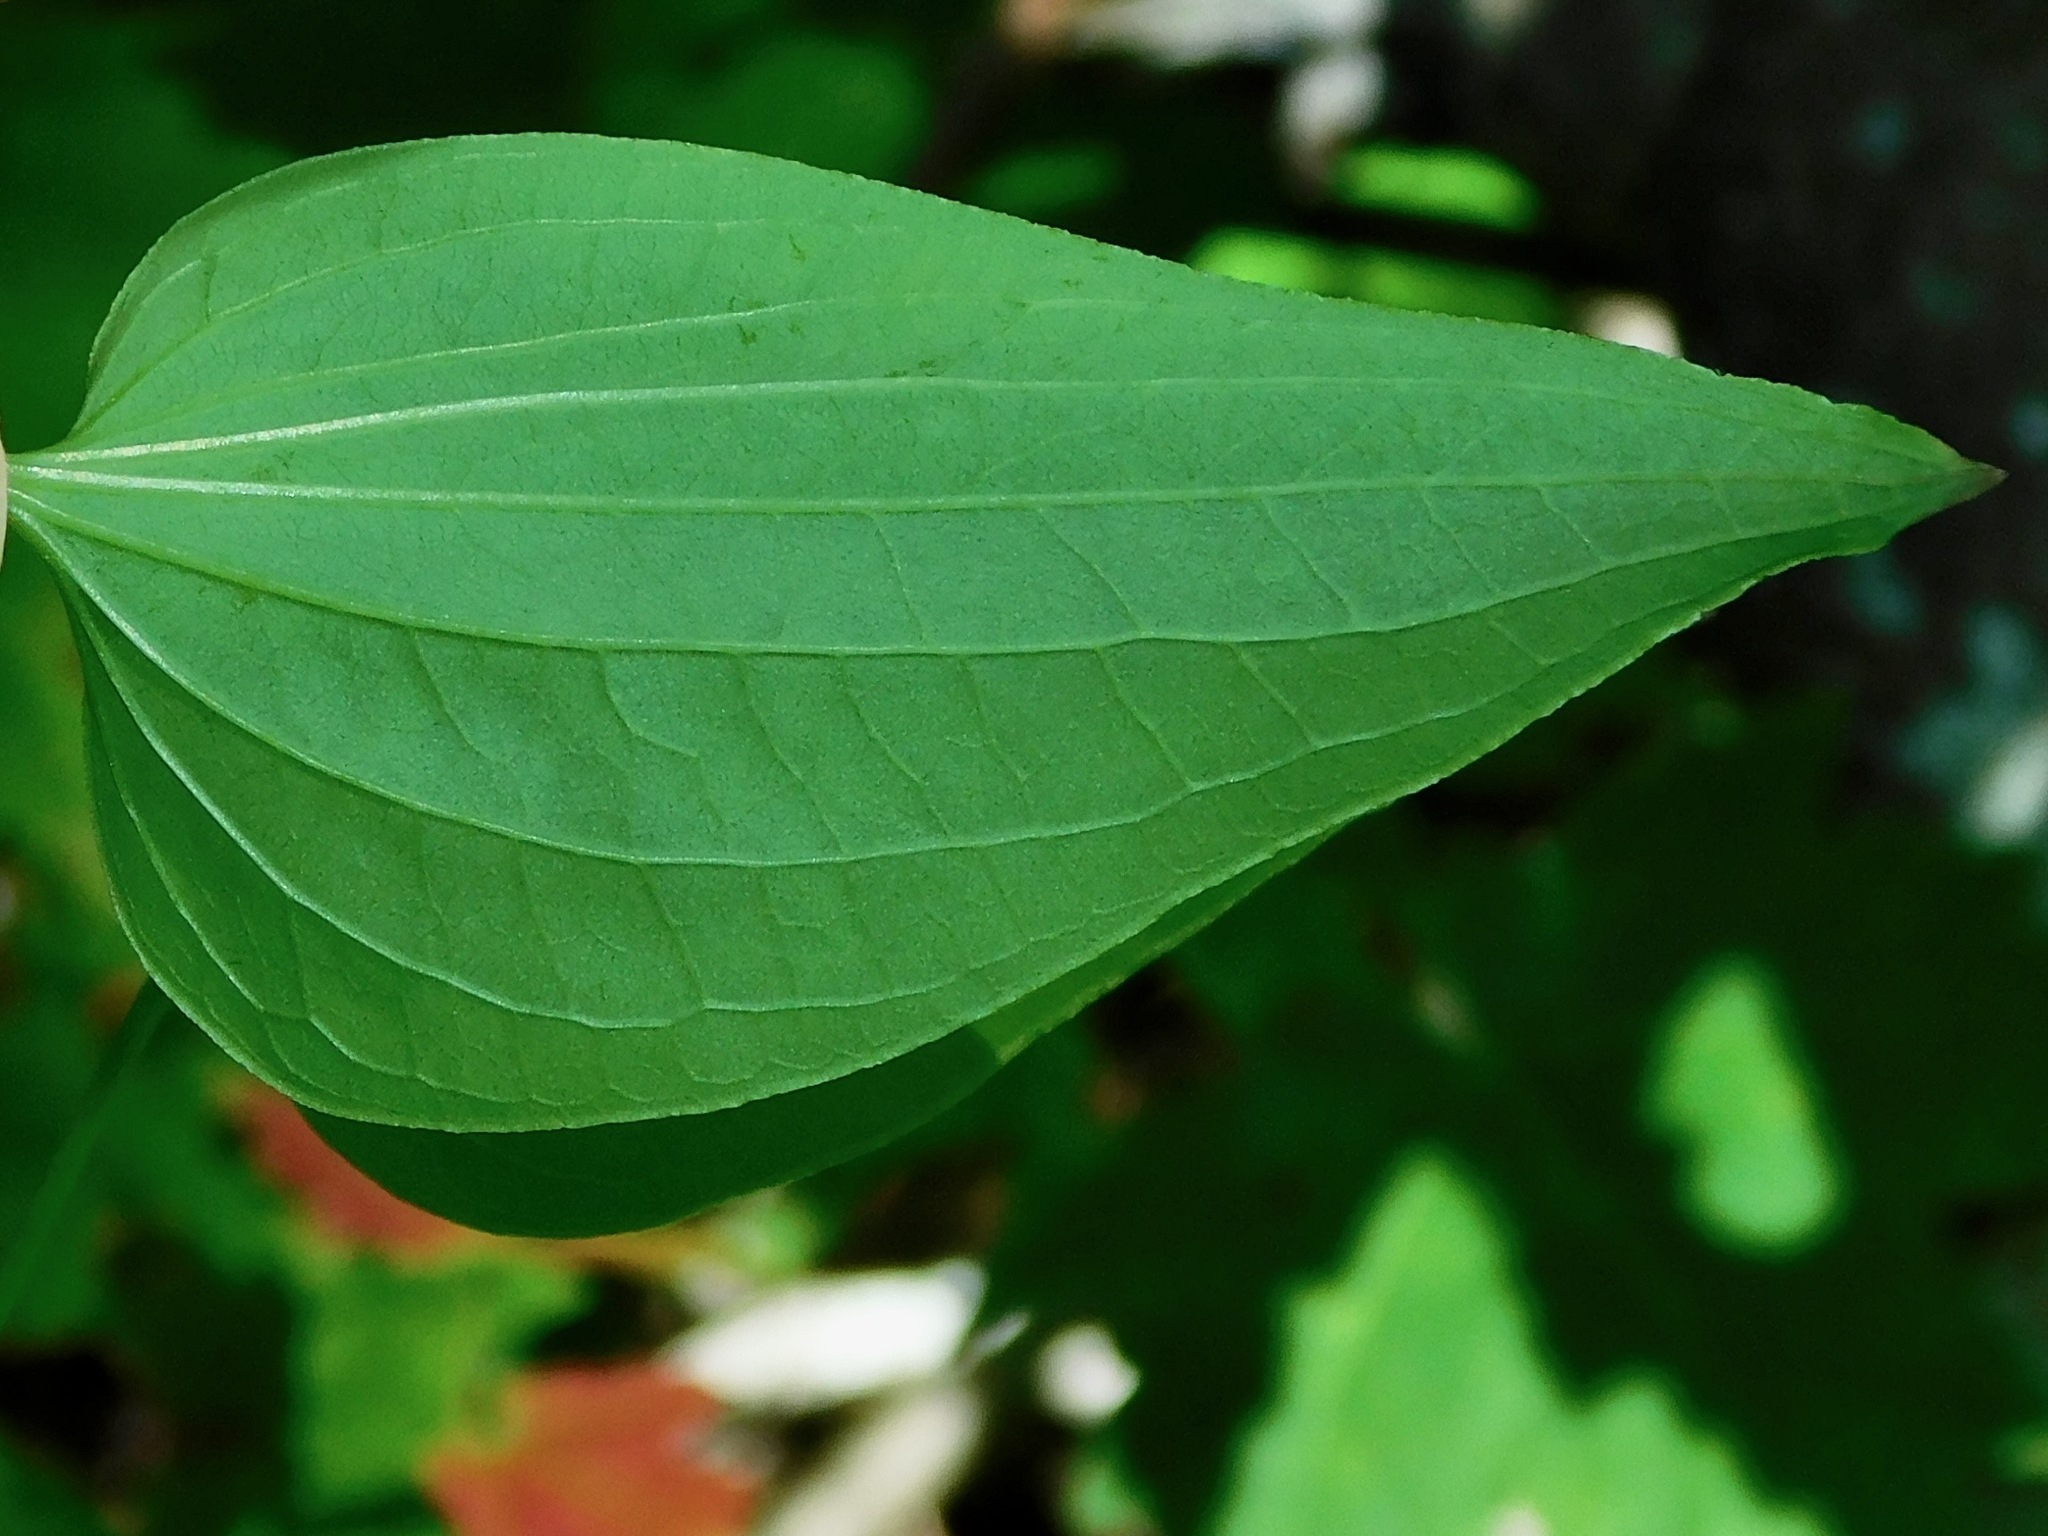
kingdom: Plantae
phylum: Tracheophyta
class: Liliopsida
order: Liliales
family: Smilacaceae
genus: Smilax
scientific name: Smilax herbacea
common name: Jacob's-ladder
